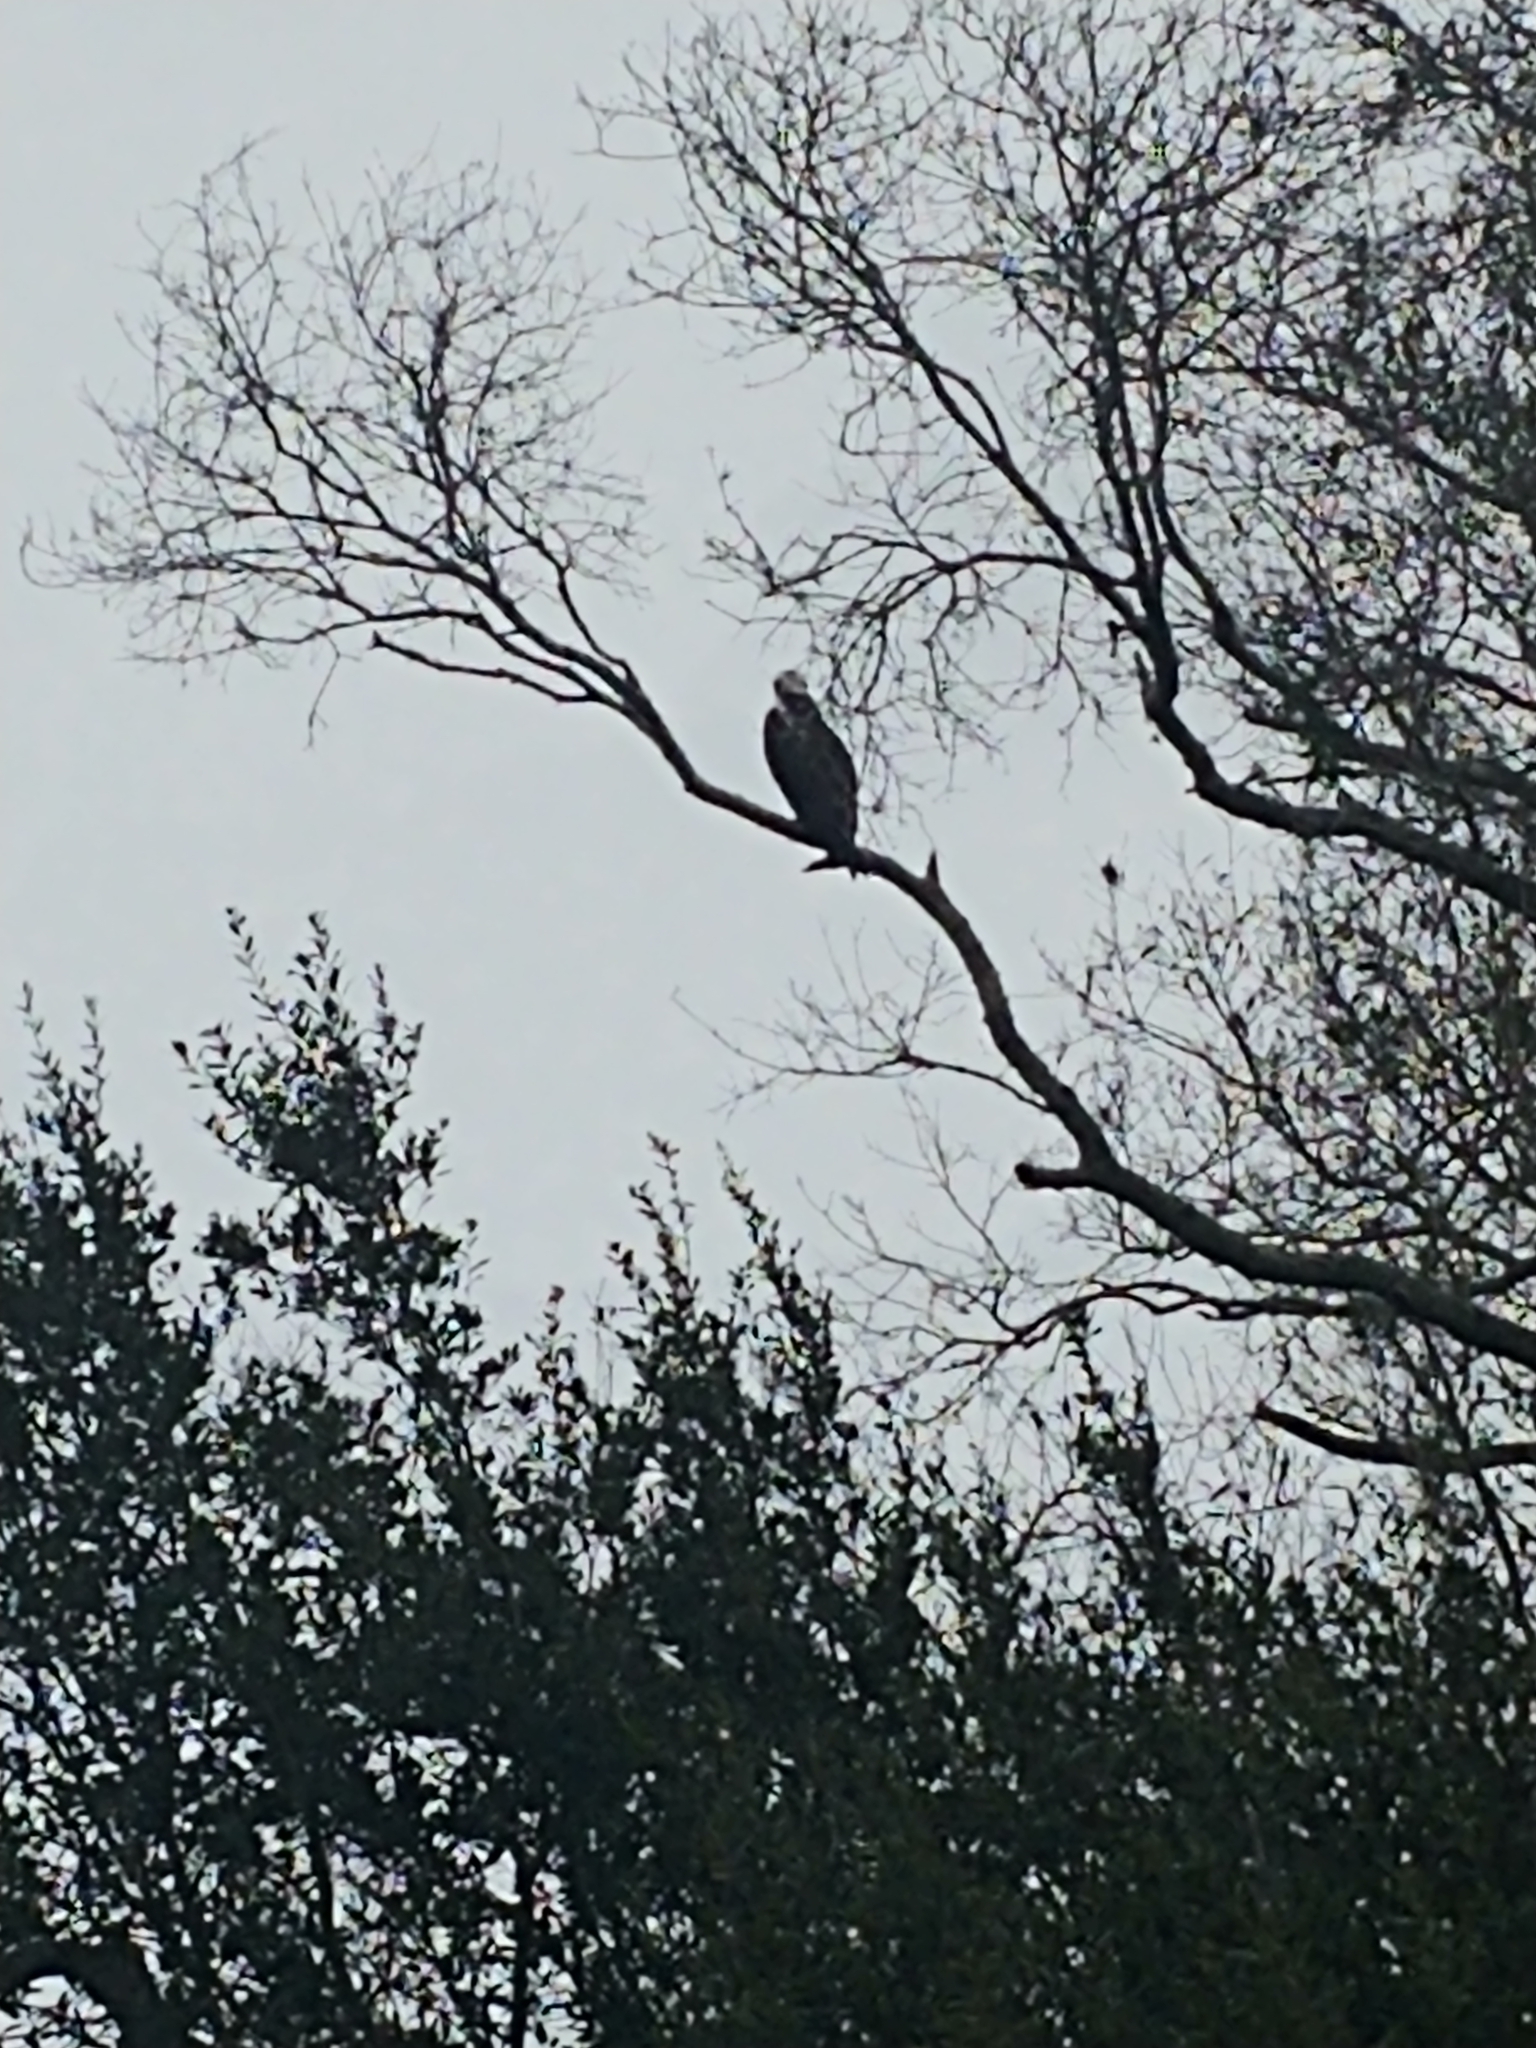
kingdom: Animalia
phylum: Chordata
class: Aves
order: Accipitriformes
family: Pandionidae
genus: Pandion
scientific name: Pandion haliaetus
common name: Osprey
